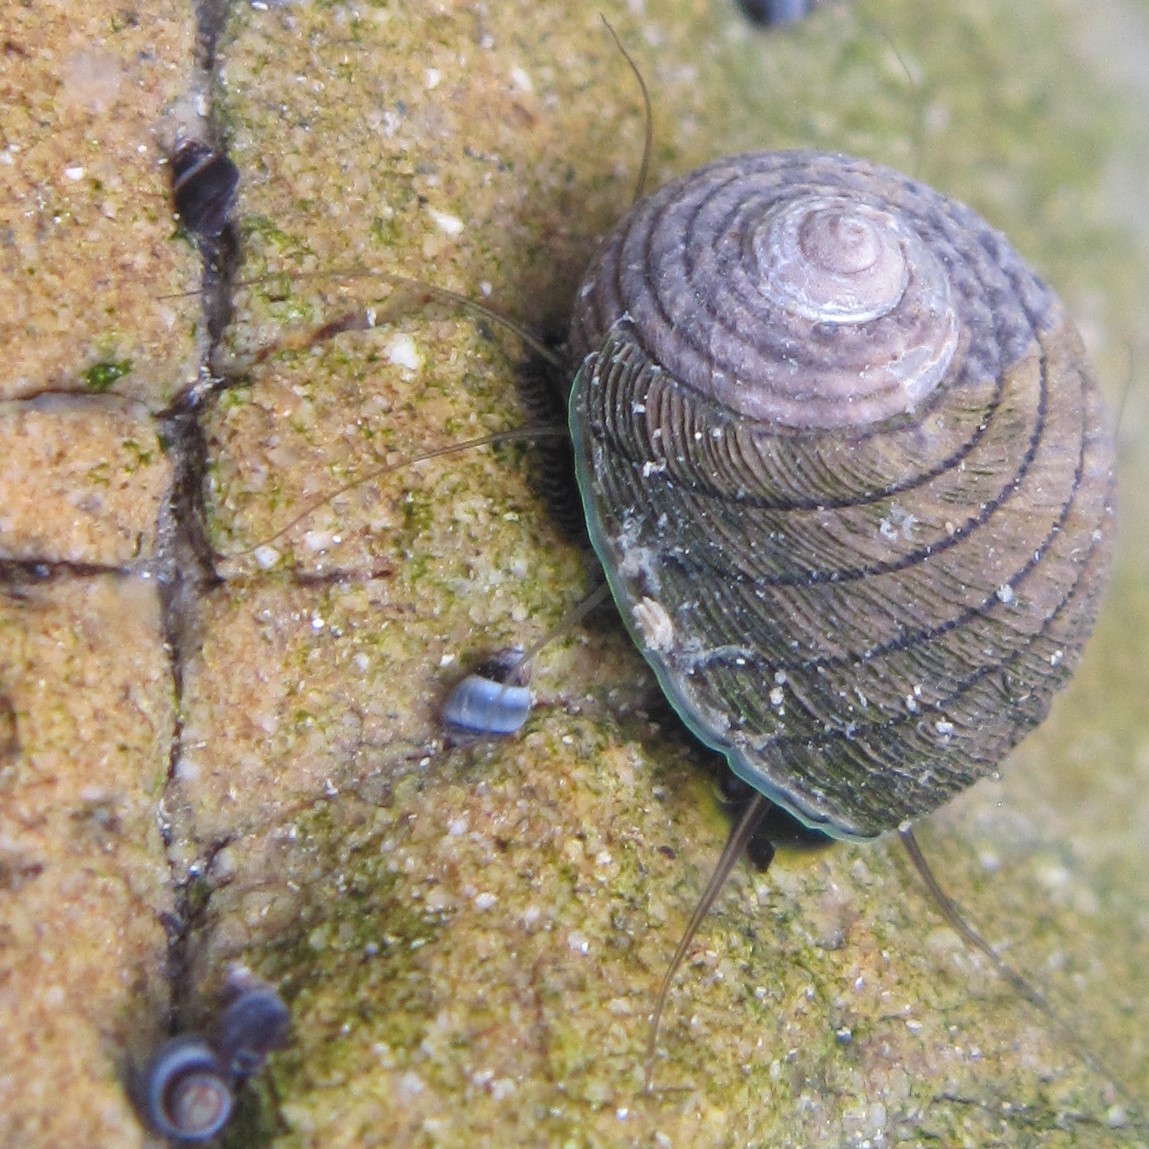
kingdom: Animalia
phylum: Mollusca
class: Gastropoda
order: Trochida
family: Trochidae
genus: Diloma
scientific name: Diloma aethiops
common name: Scorched monodont
